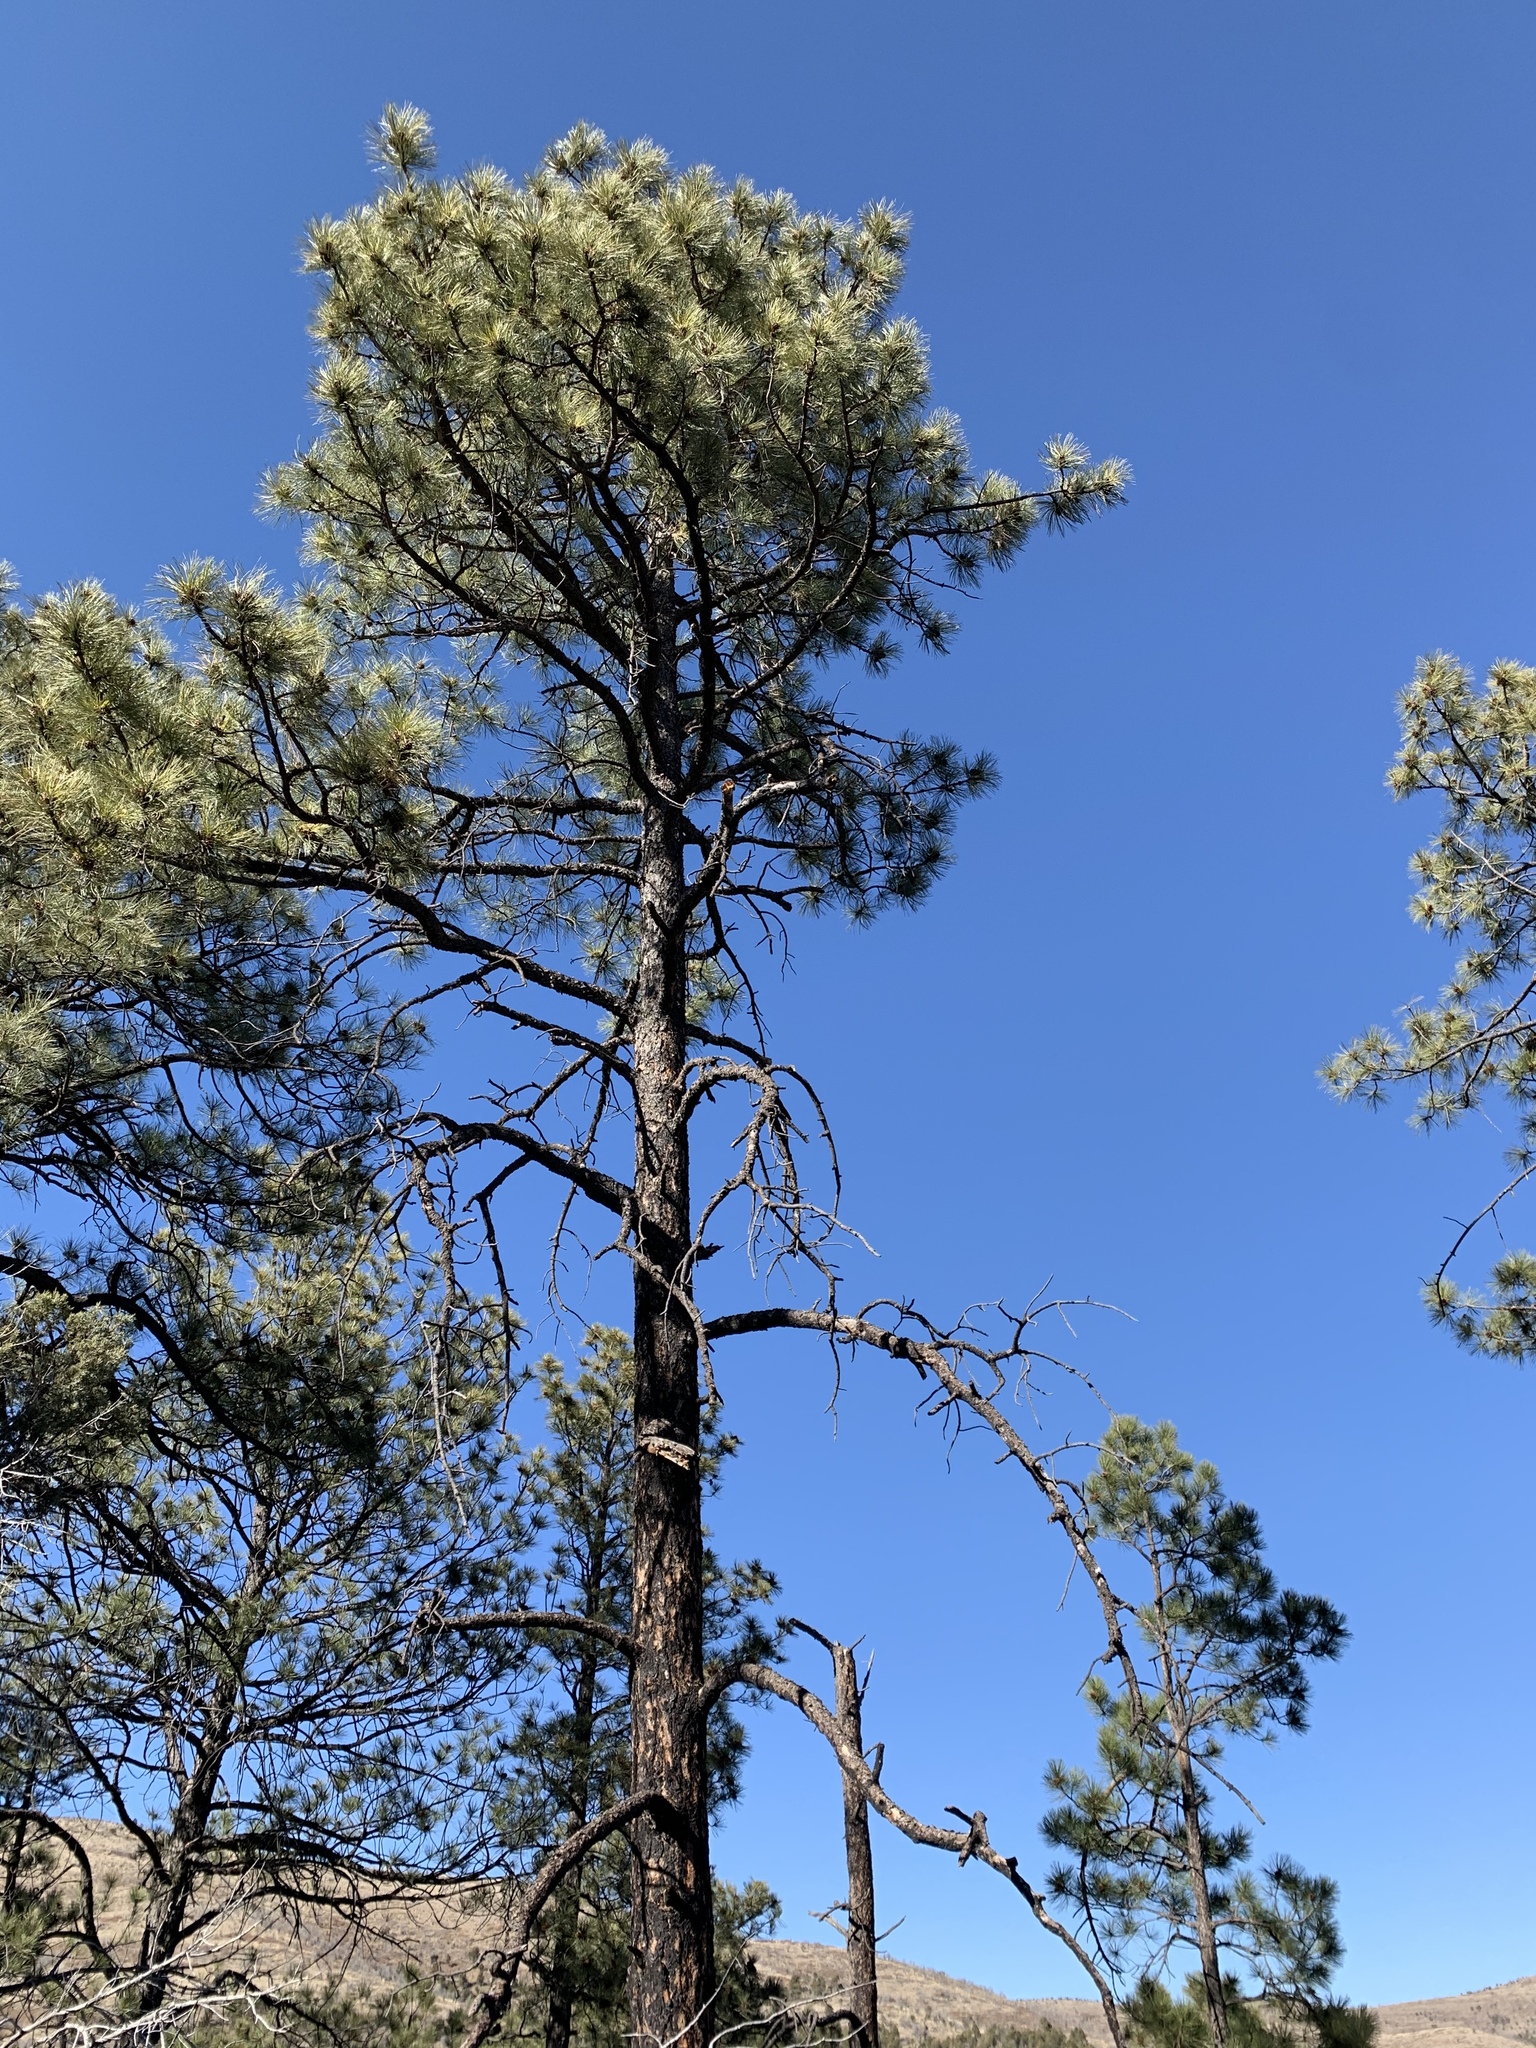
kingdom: Plantae
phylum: Tracheophyta
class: Pinopsida
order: Pinales
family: Pinaceae
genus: Pinus
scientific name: Pinus ponderosa
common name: Western yellow-pine
